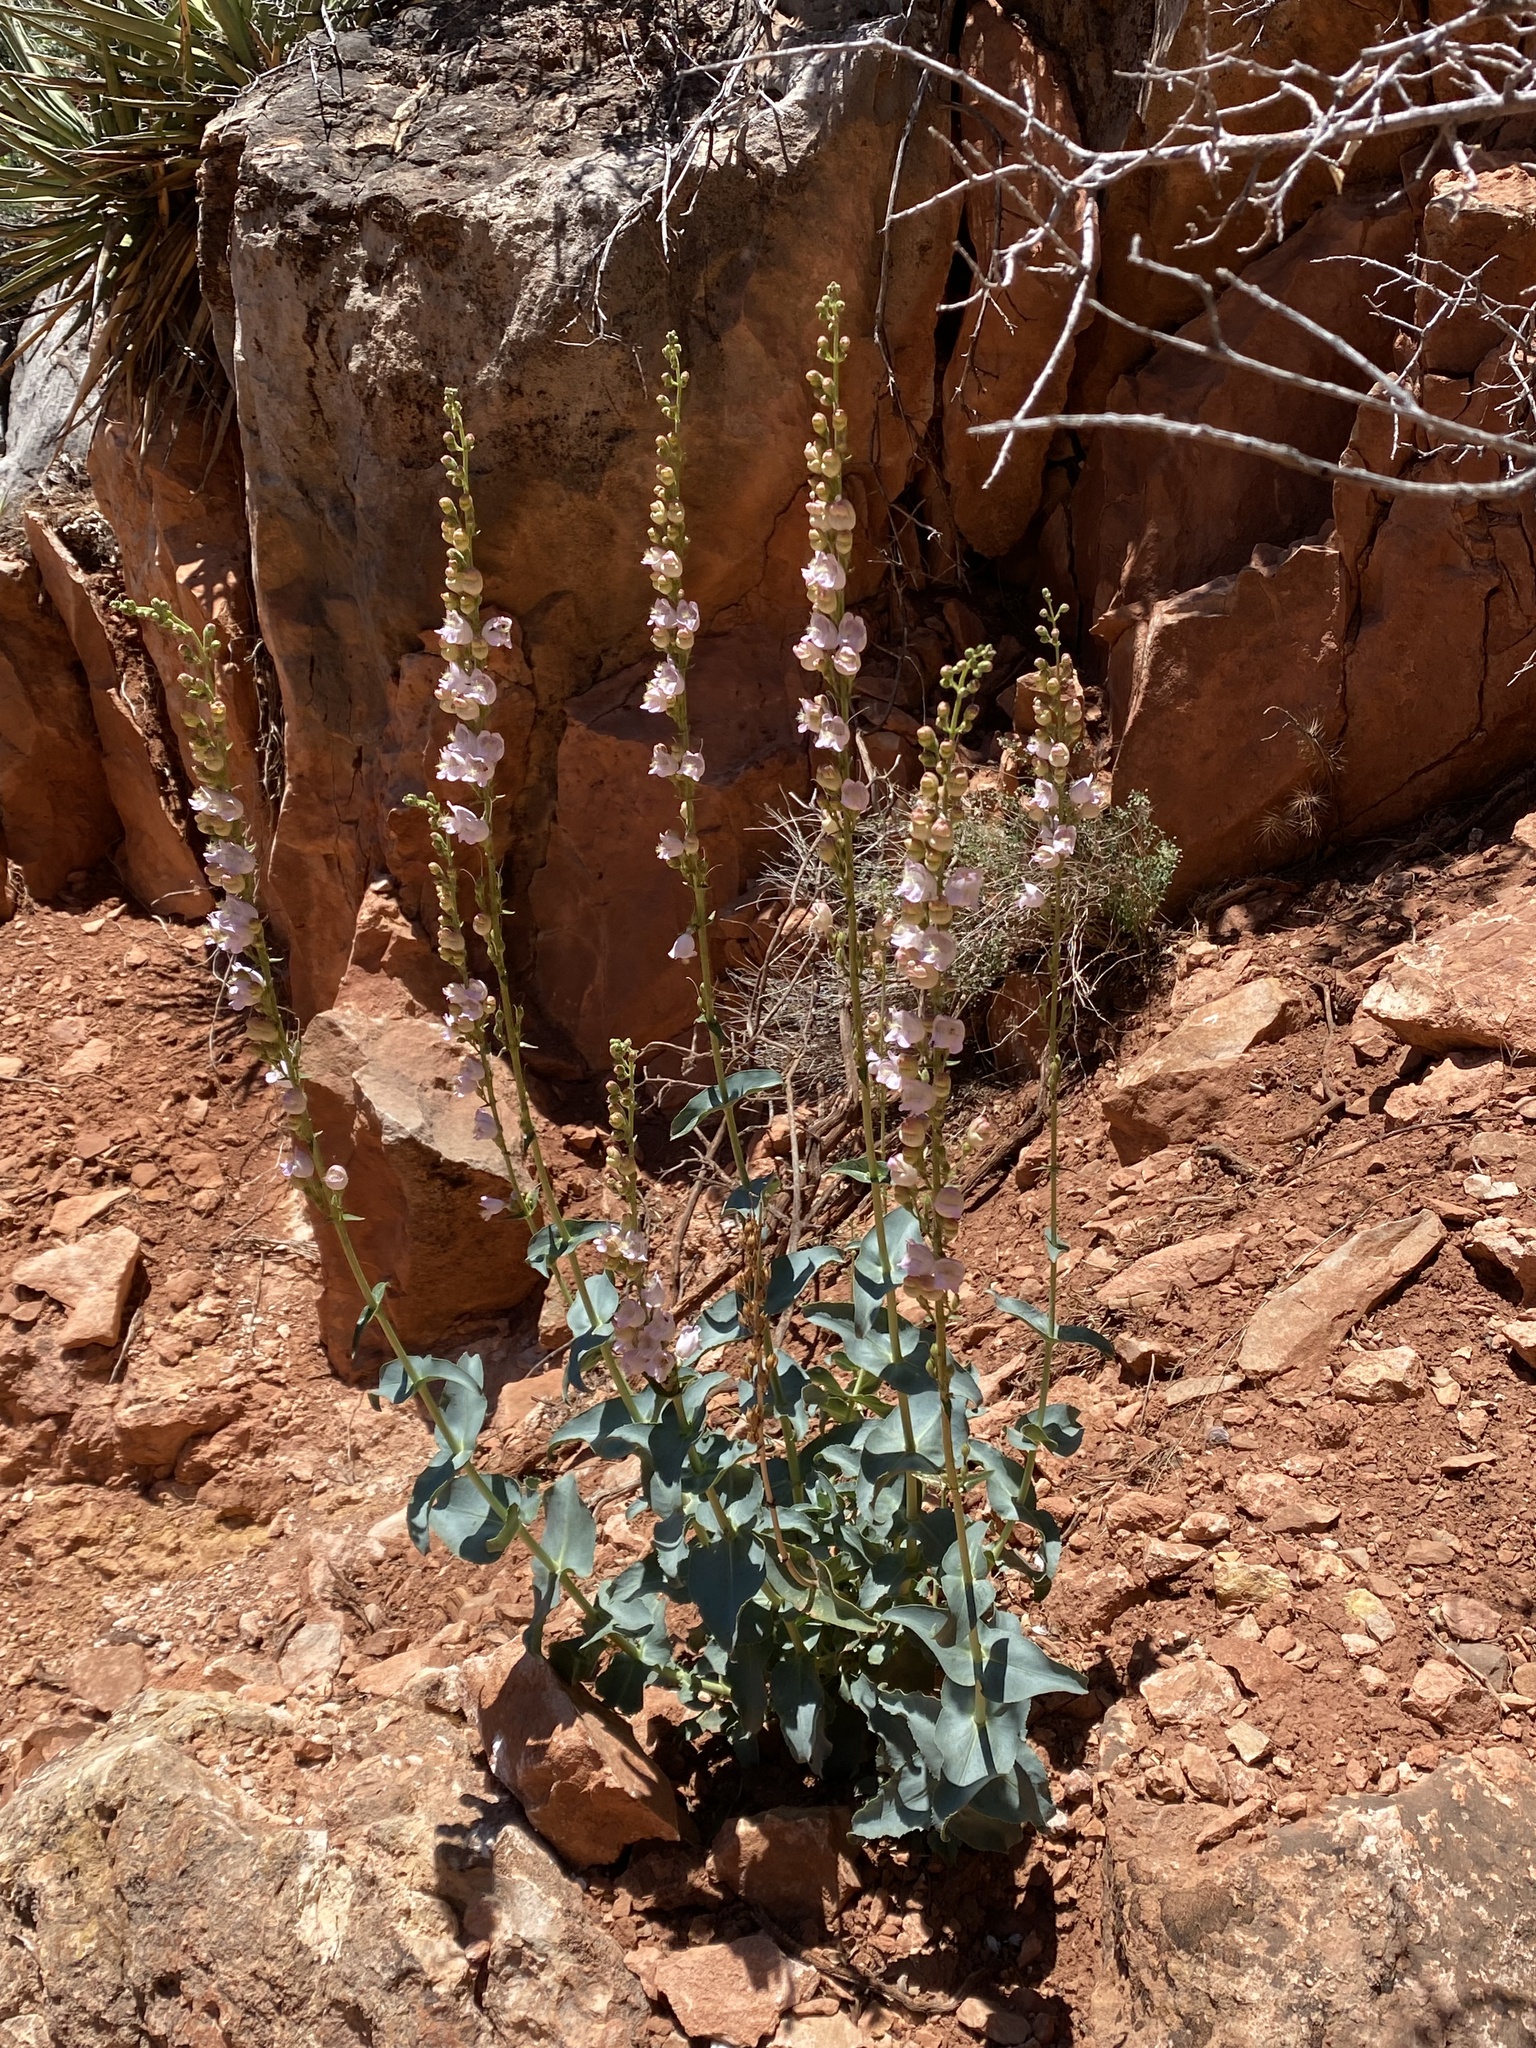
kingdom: Plantae
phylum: Tracheophyta
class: Magnoliopsida
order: Lamiales
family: Plantaginaceae
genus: Penstemon
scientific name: Penstemon palmeri
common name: Palmer penstemon
